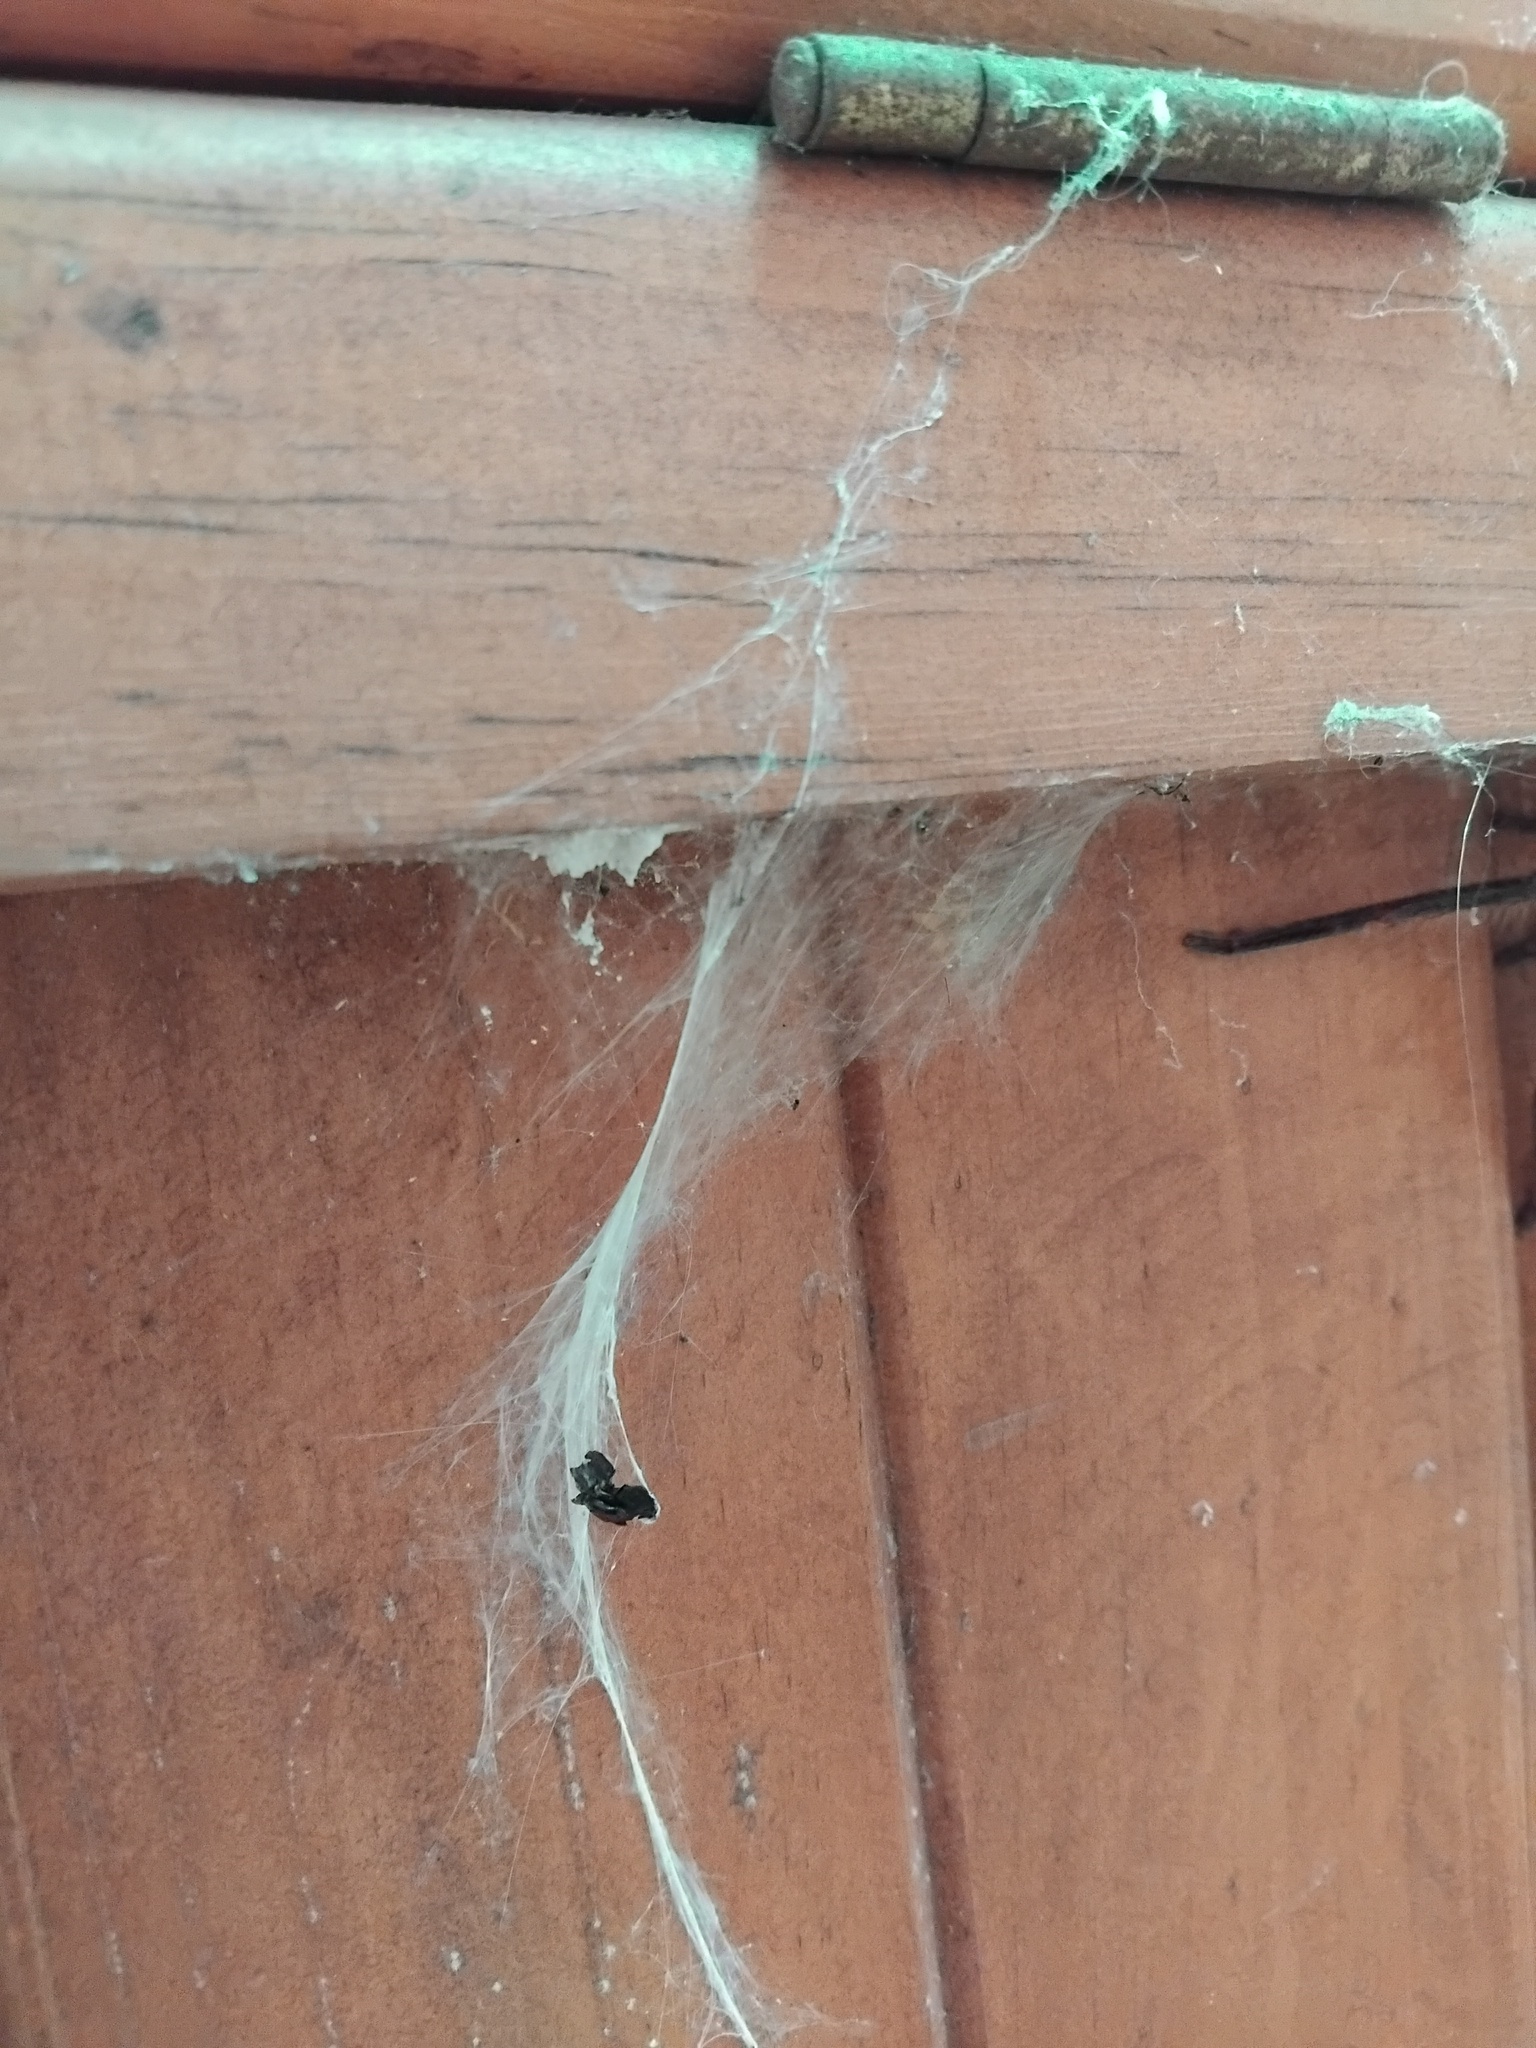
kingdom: Animalia
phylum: Arthropoda
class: Arachnida
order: Araneae
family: Sparassidae
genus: Isopeda
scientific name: Isopeda villosa
